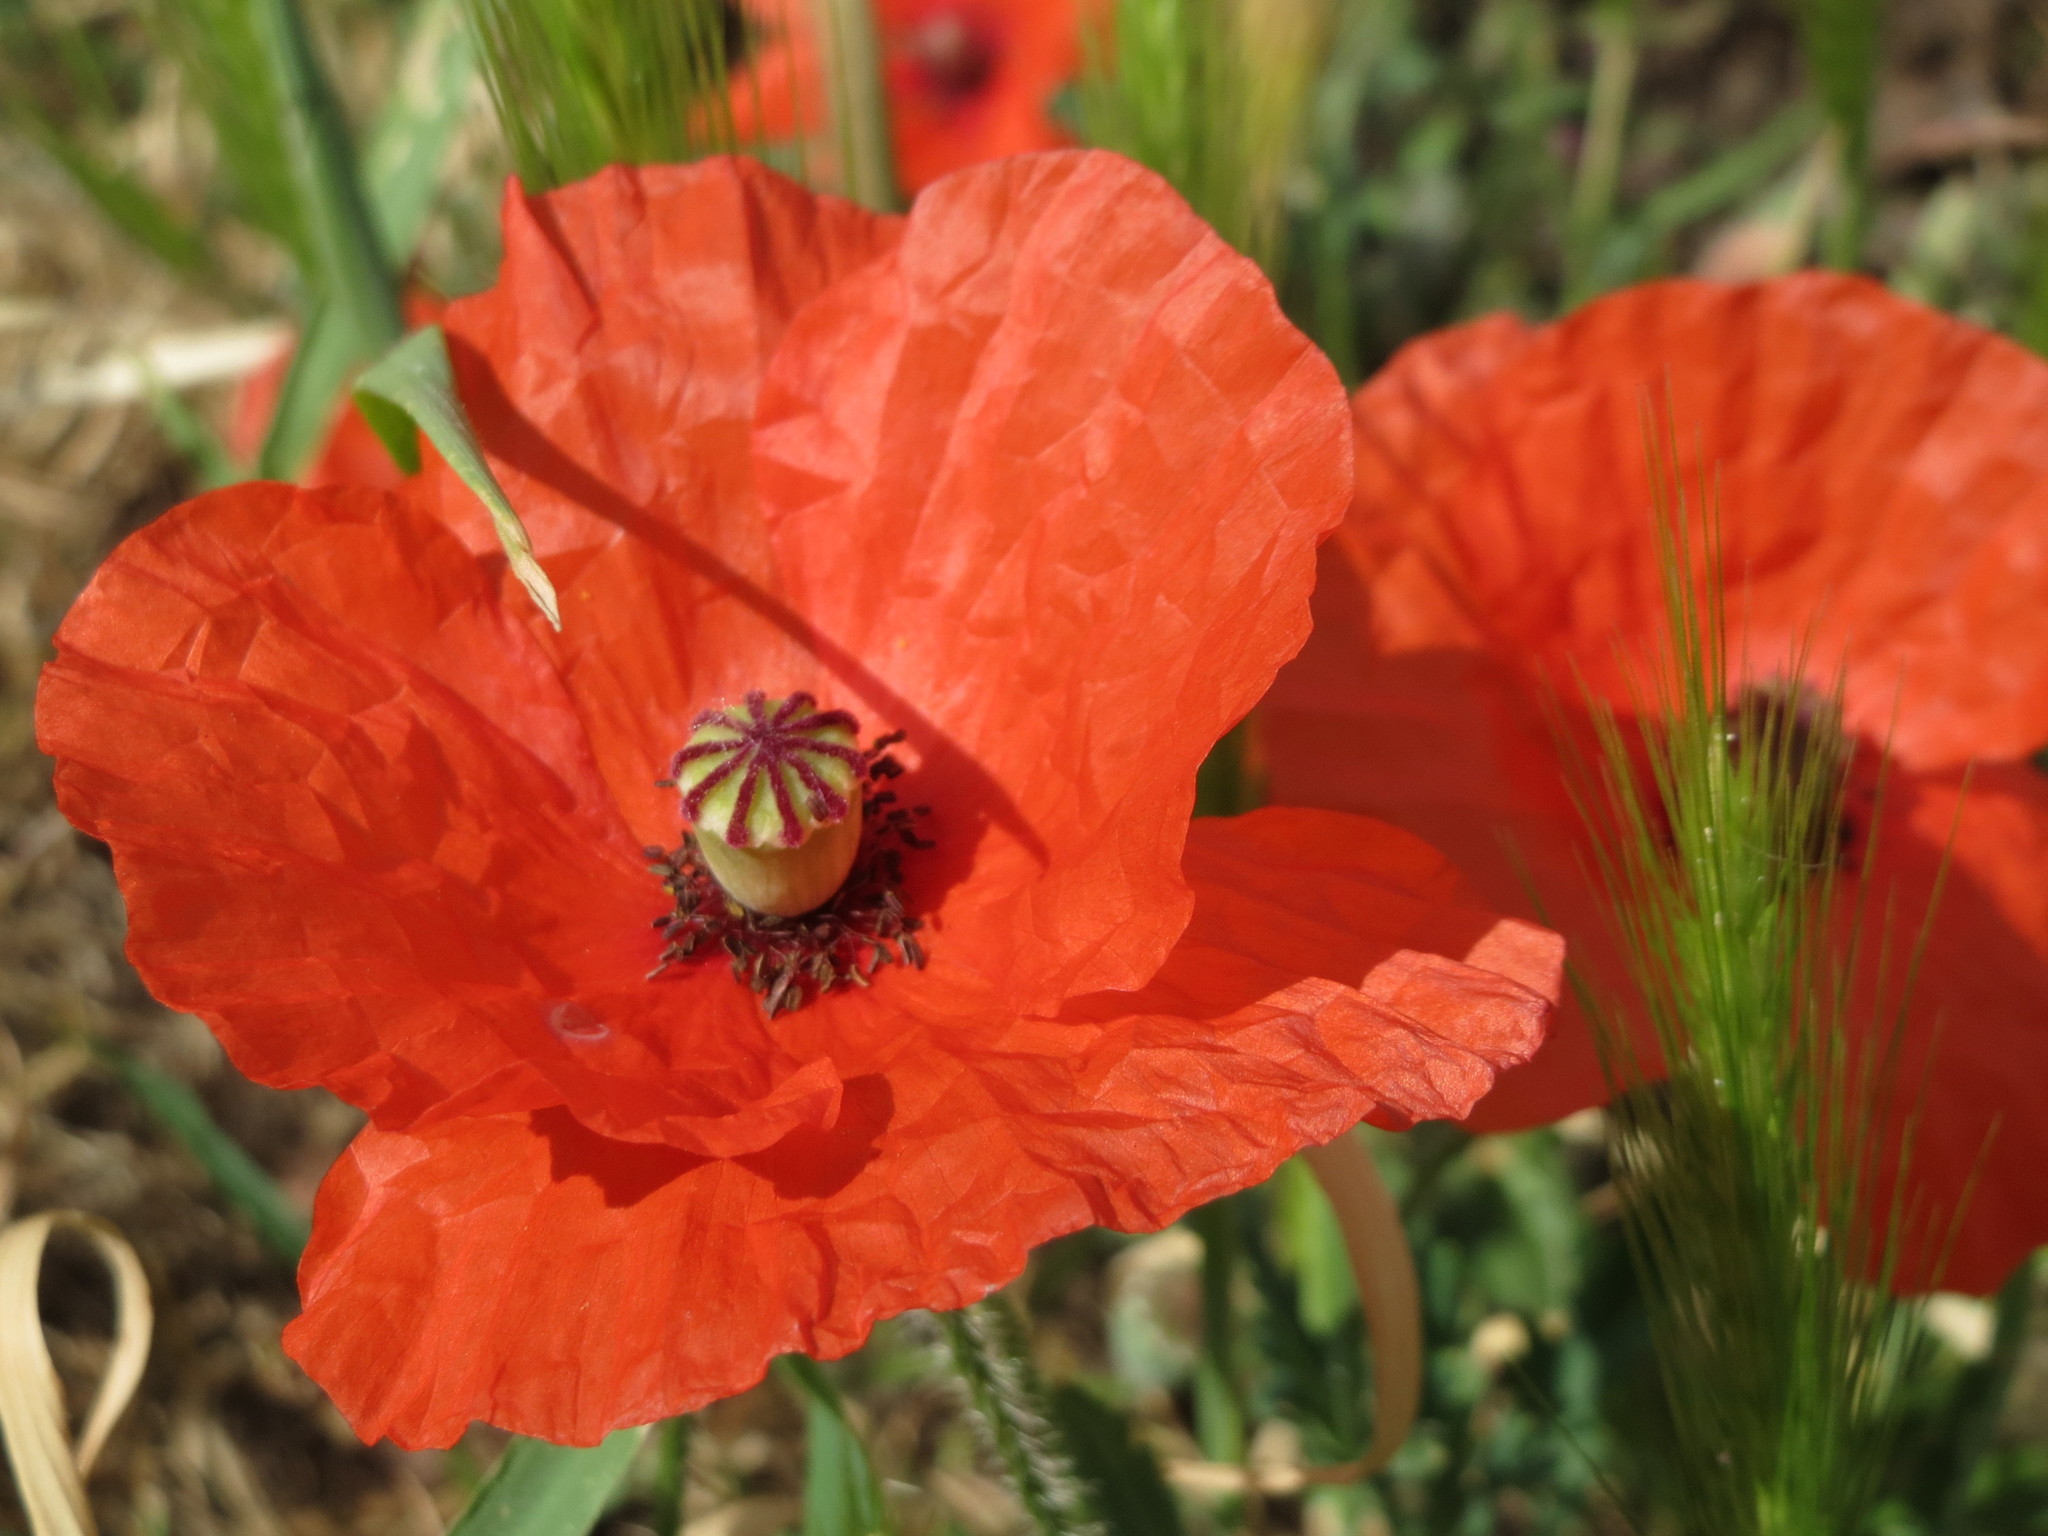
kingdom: Plantae
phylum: Tracheophyta
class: Magnoliopsida
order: Ranunculales
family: Papaveraceae
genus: Papaver
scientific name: Papaver rhoeas
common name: Corn poppy
